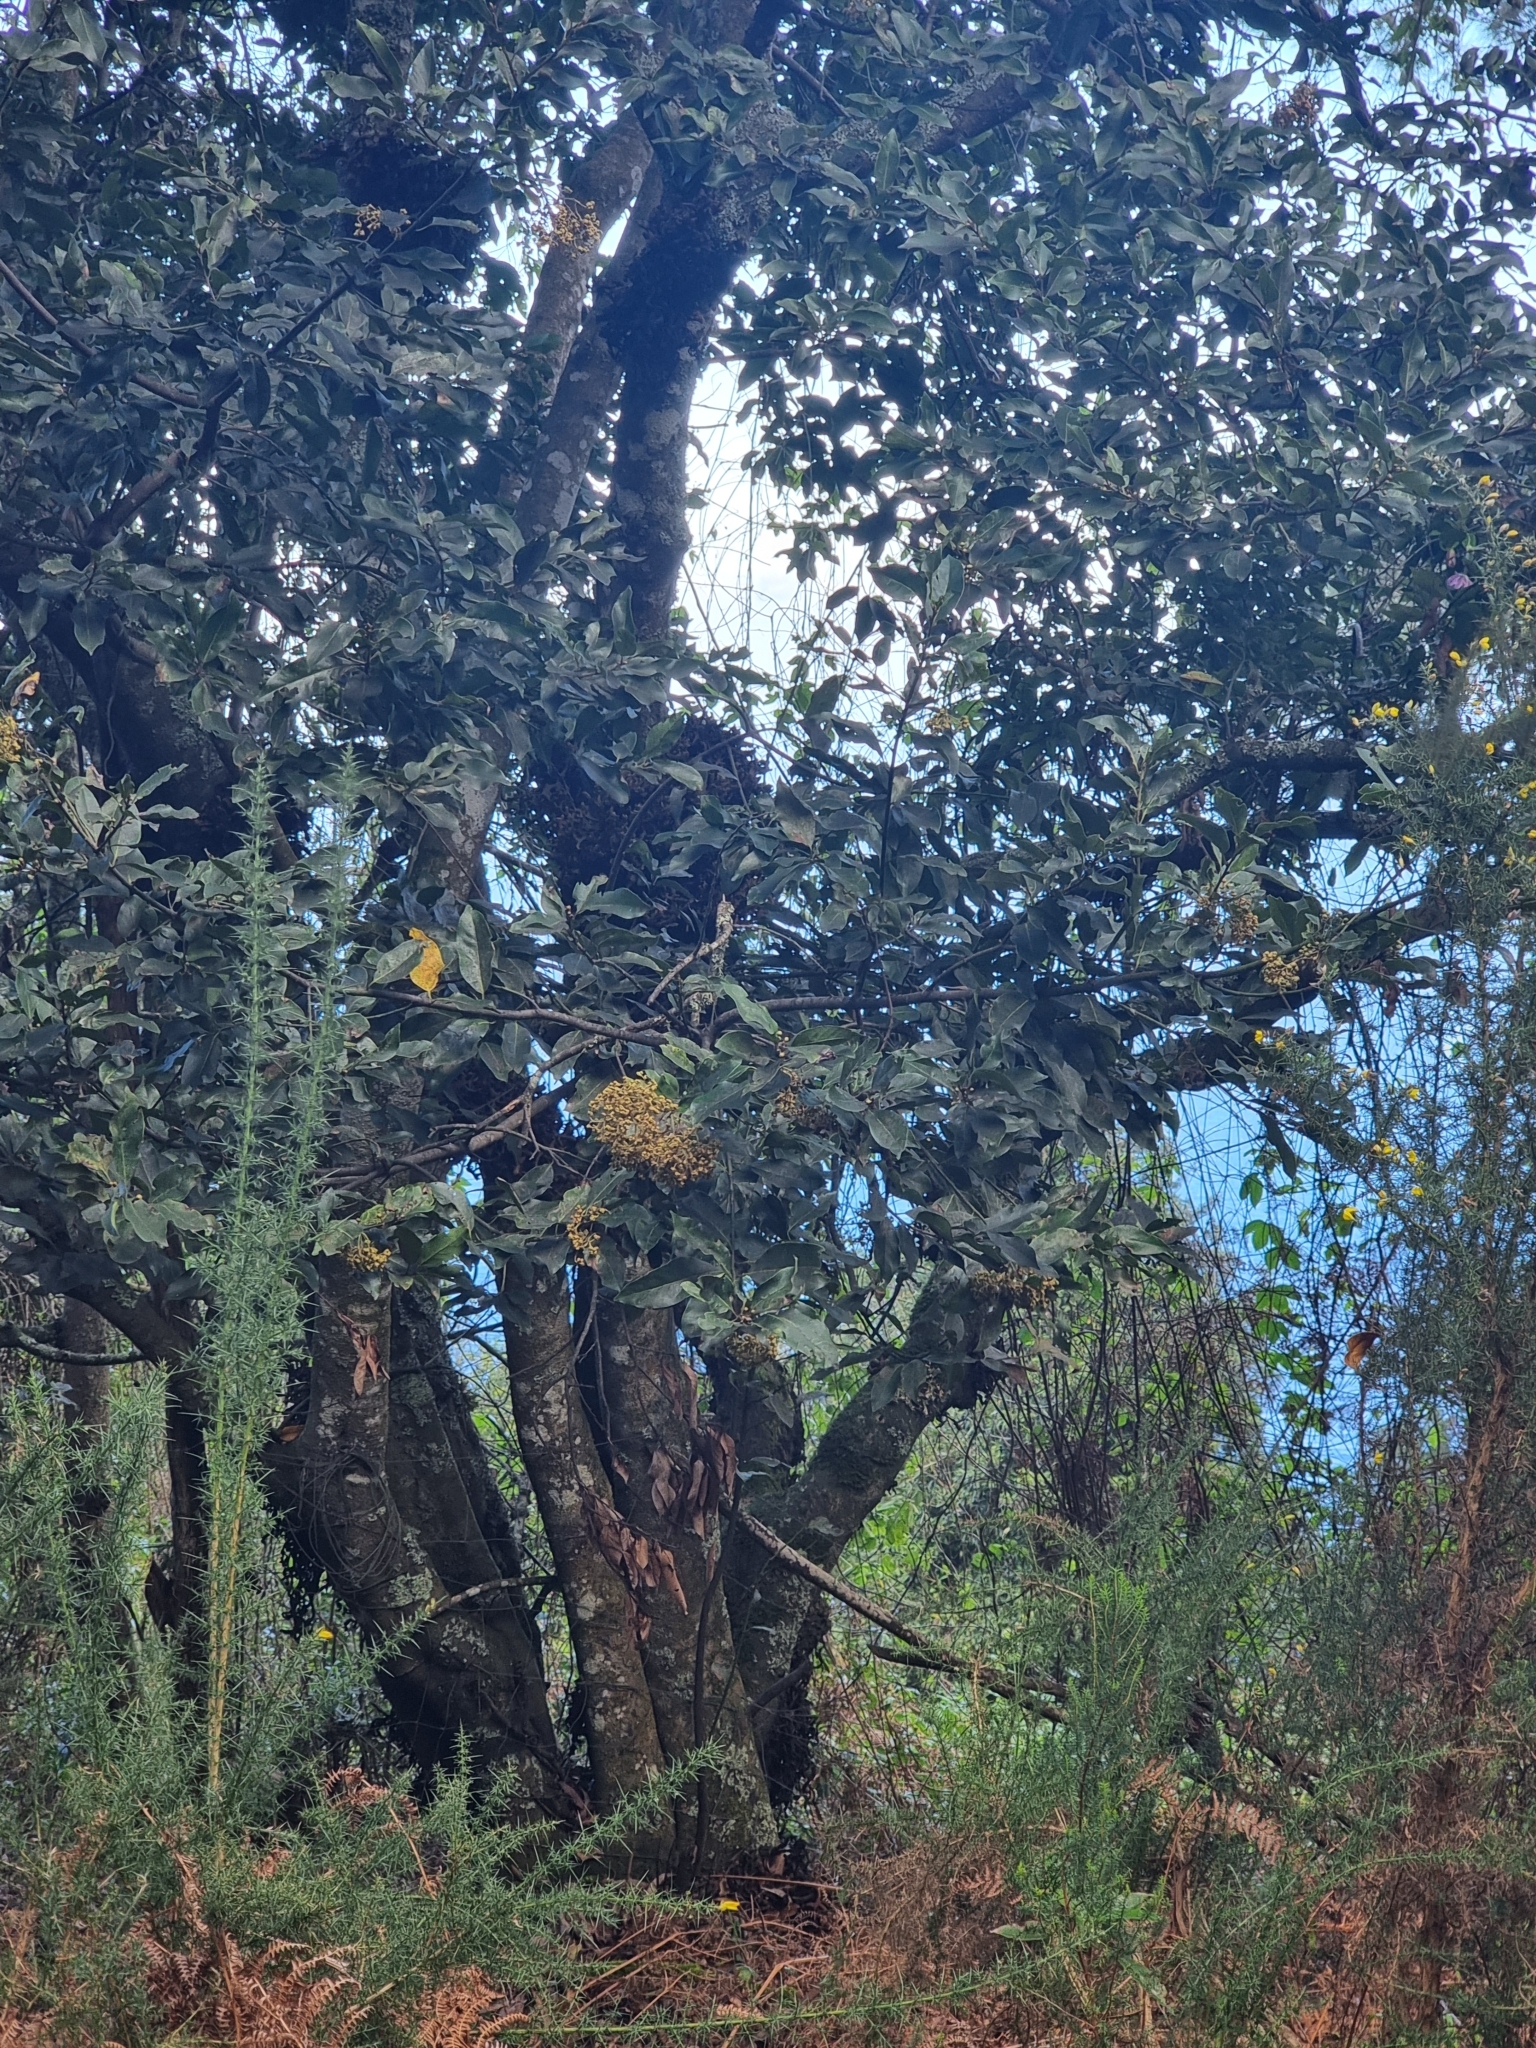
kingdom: Plantae
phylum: Tracheophyta
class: Magnoliopsida
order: Laurales
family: Lauraceae
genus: Laurus
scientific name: Laurus novocanariensis
